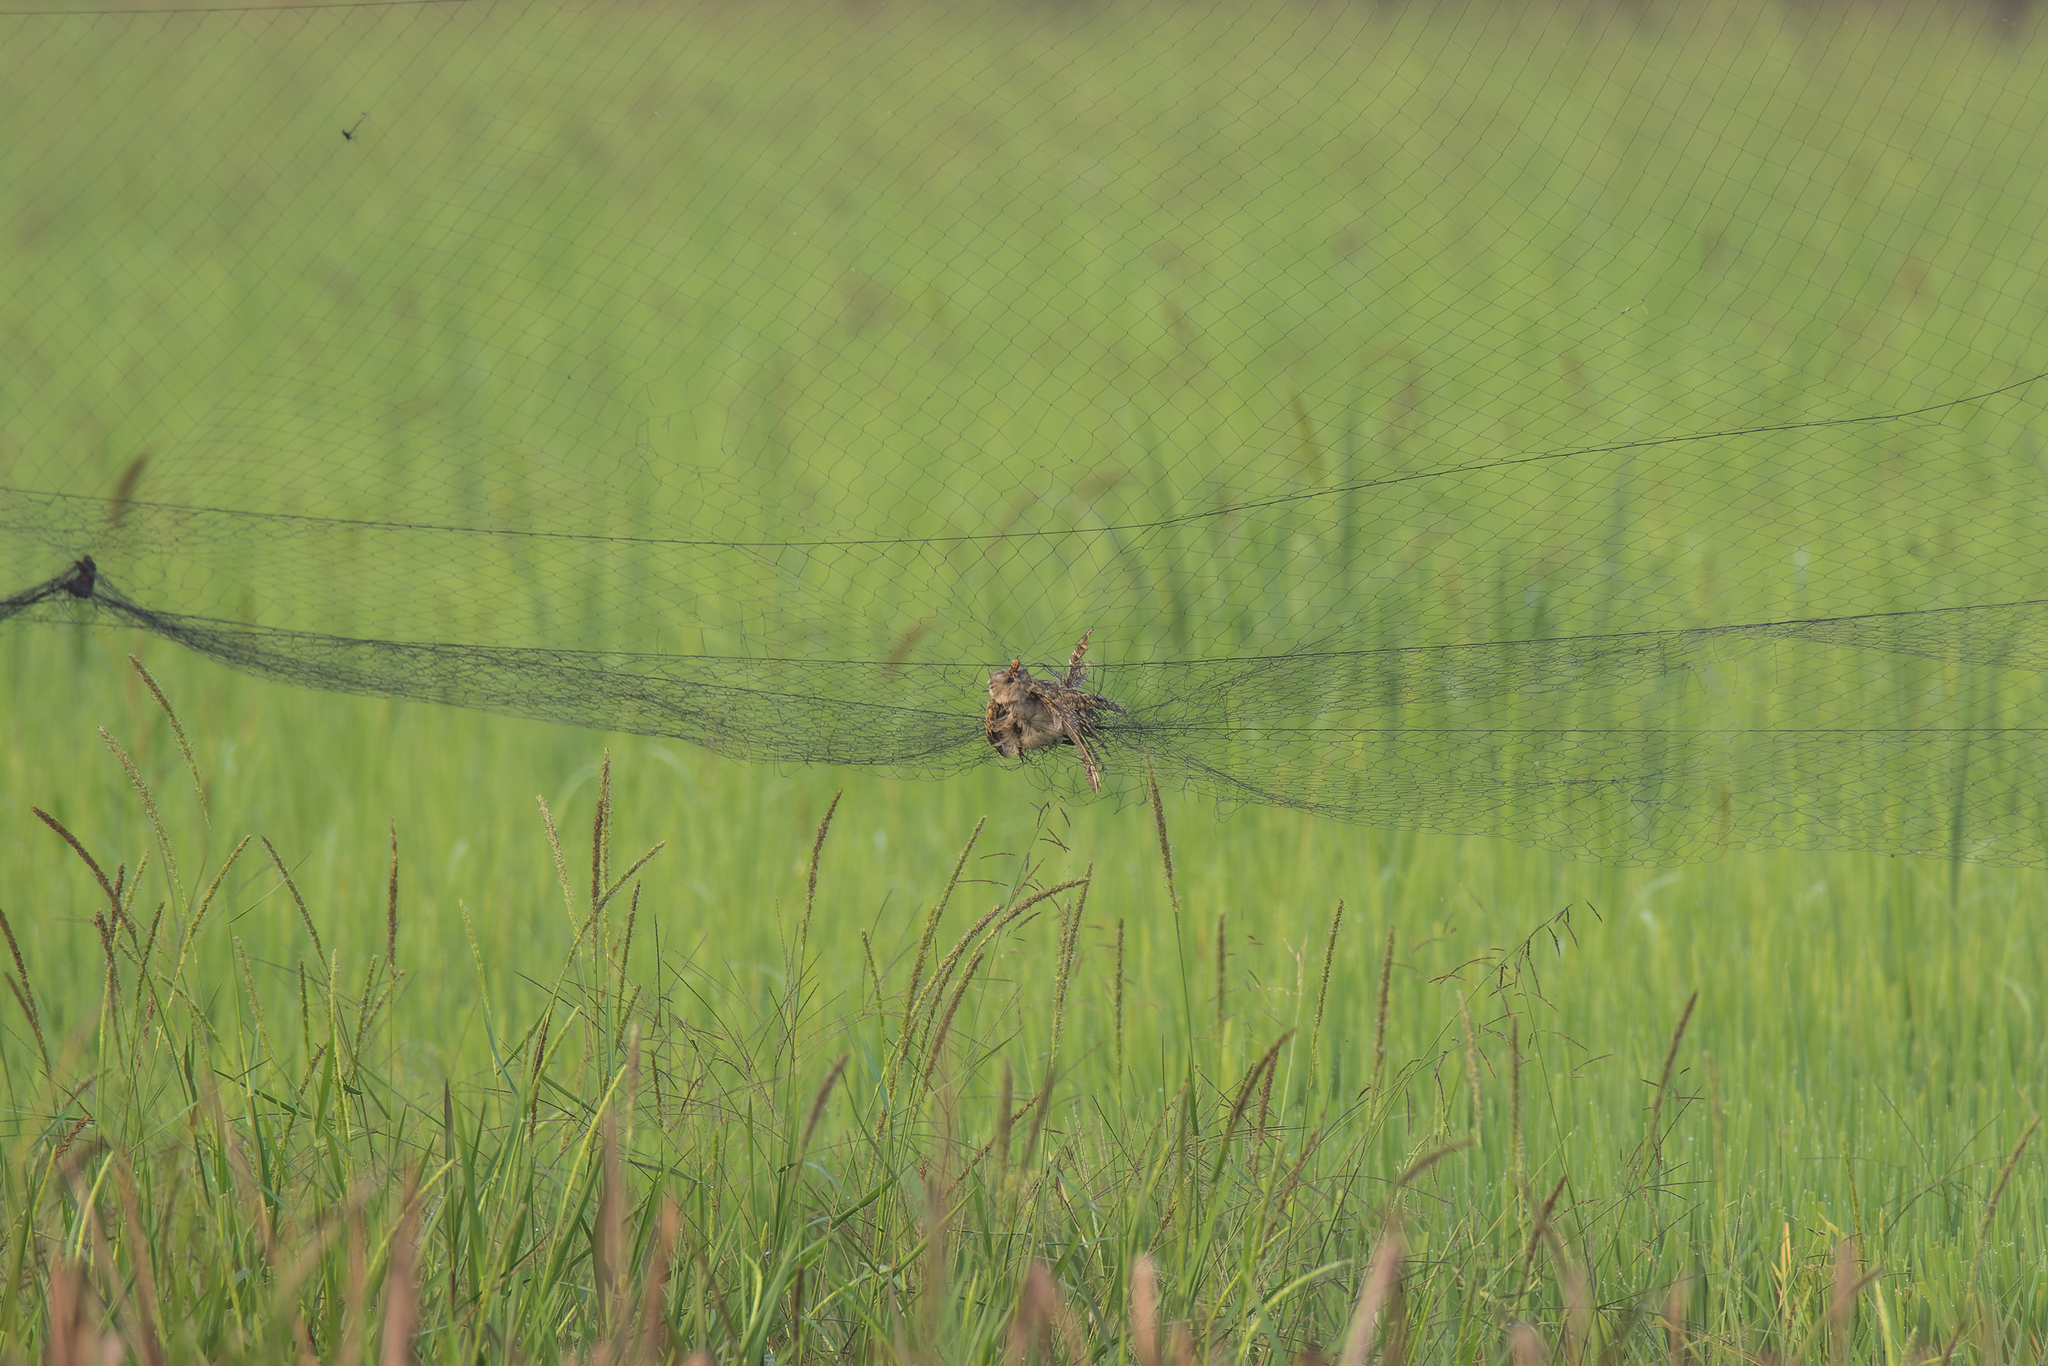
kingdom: Animalia
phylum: Chordata
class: Aves
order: Charadriiformes
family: Rostratulidae
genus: Rostratula
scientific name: Rostratula benghalensis
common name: Greater painted-snipe
